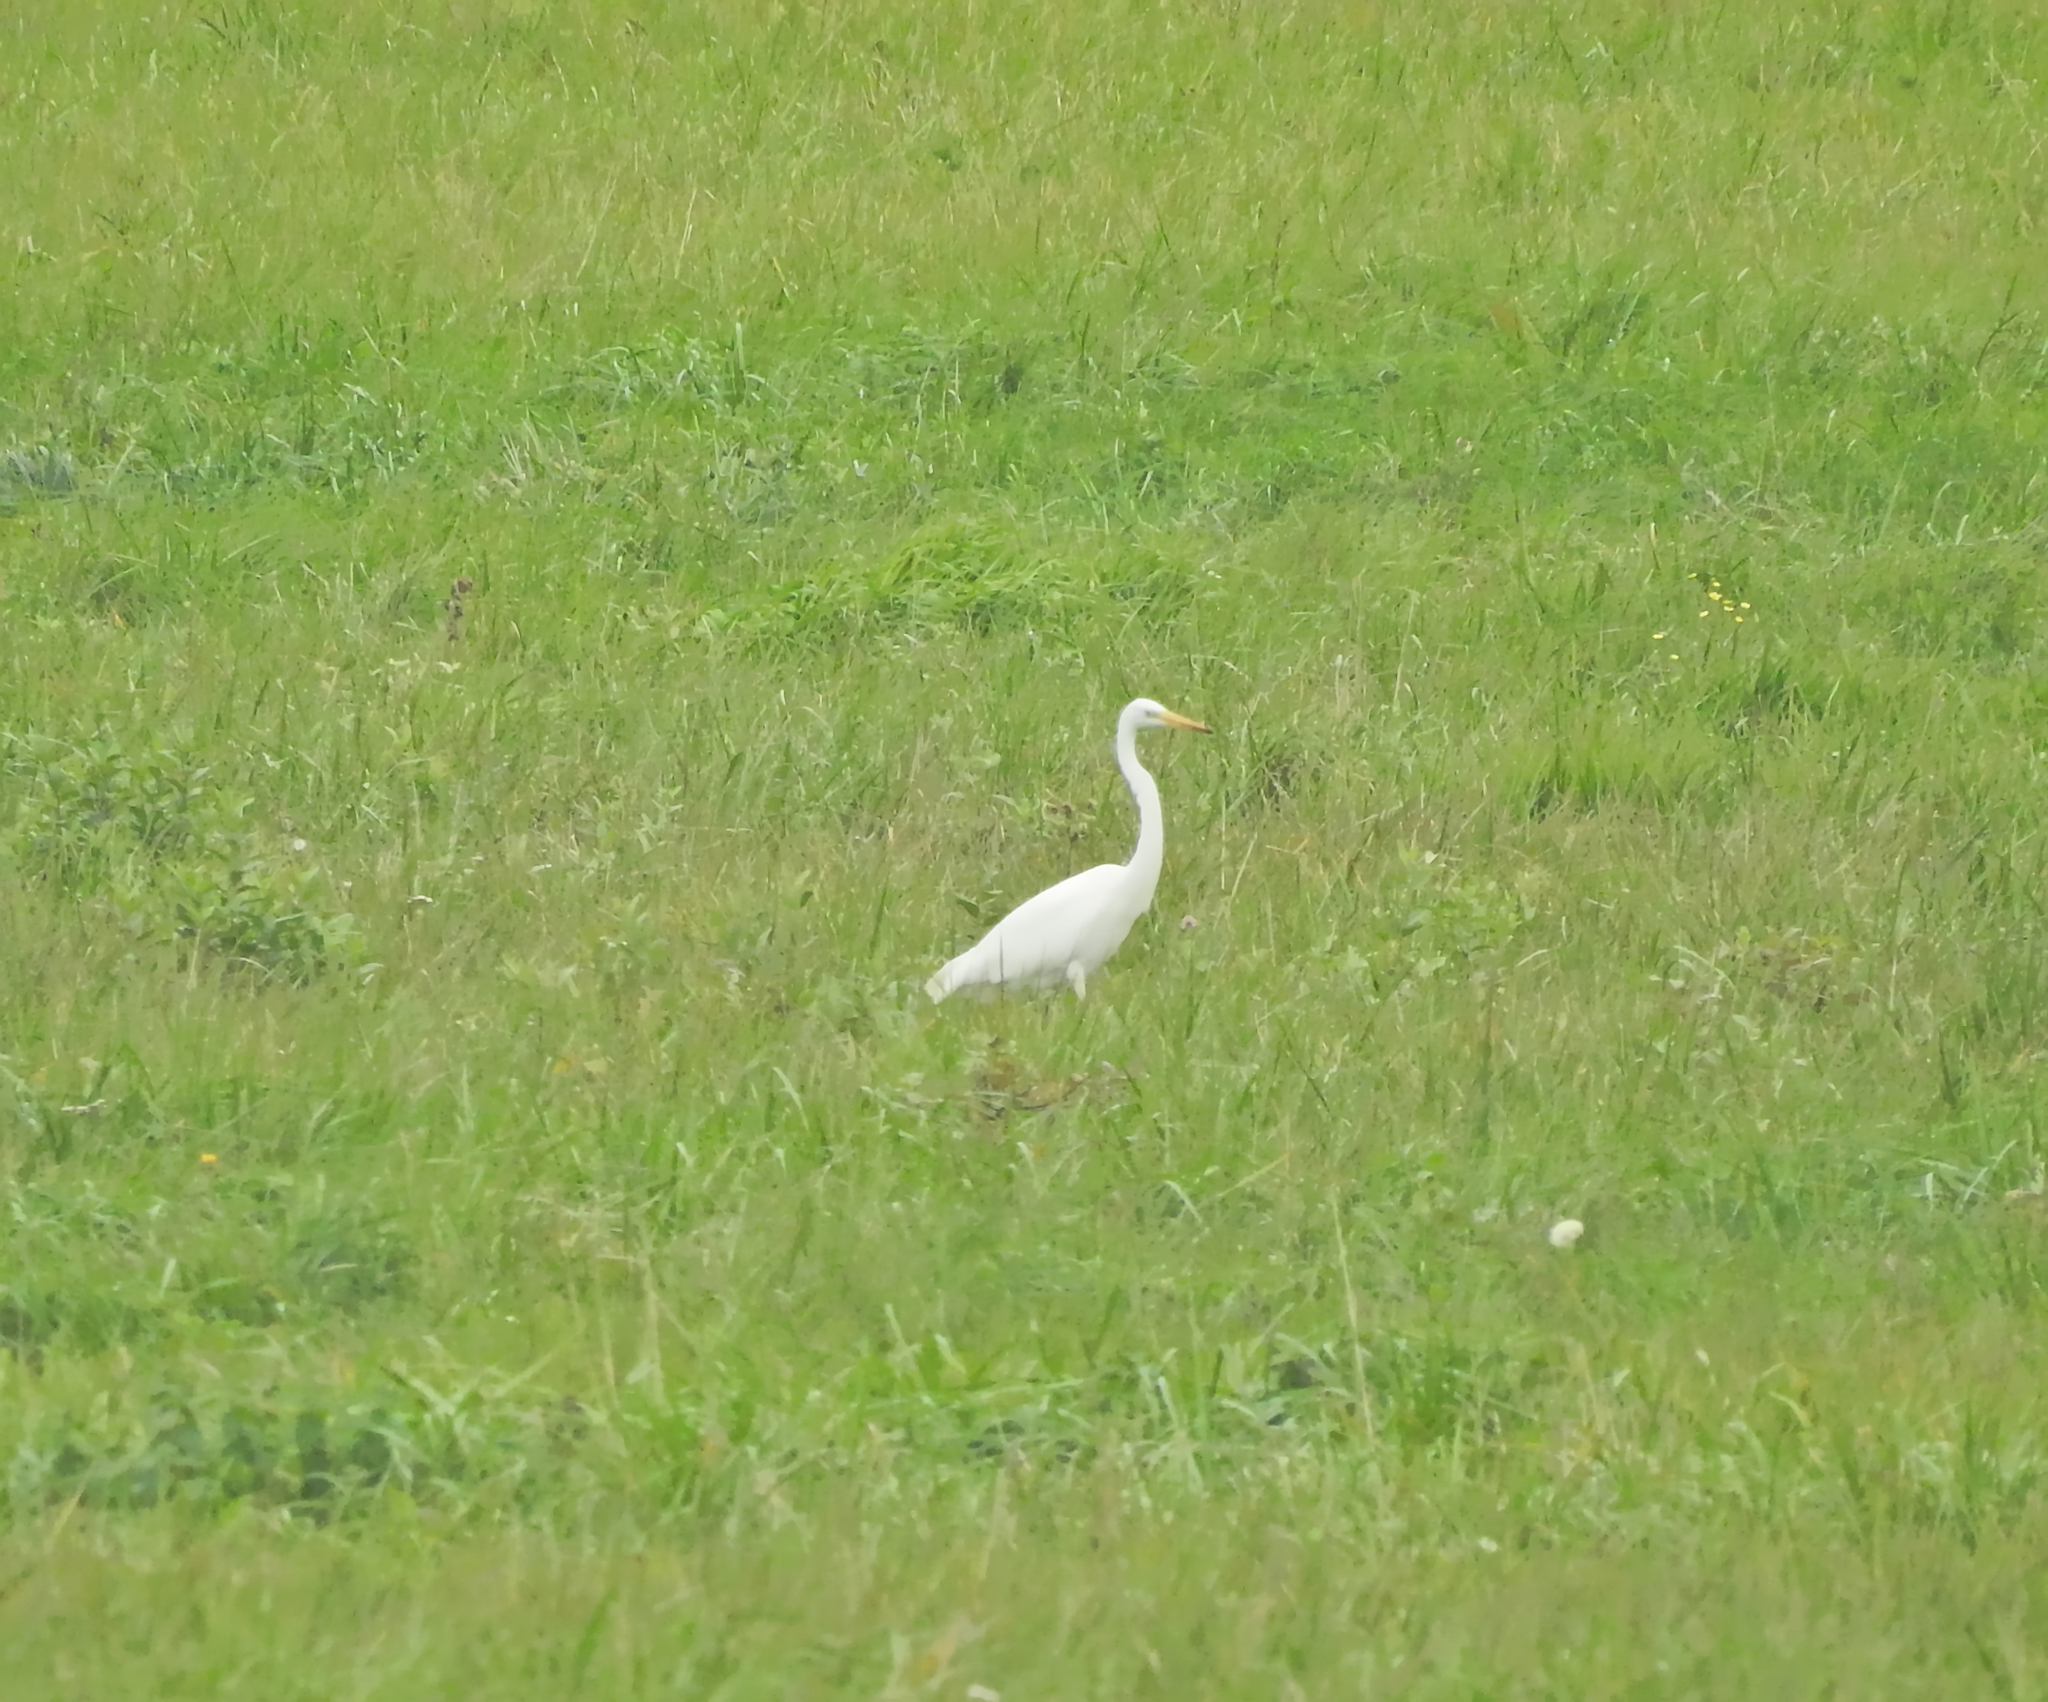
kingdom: Animalia
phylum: Chordata
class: Aves
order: Pelecaniformes
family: Ardeidae
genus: Ardea
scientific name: Ardea alba
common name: Great egret
